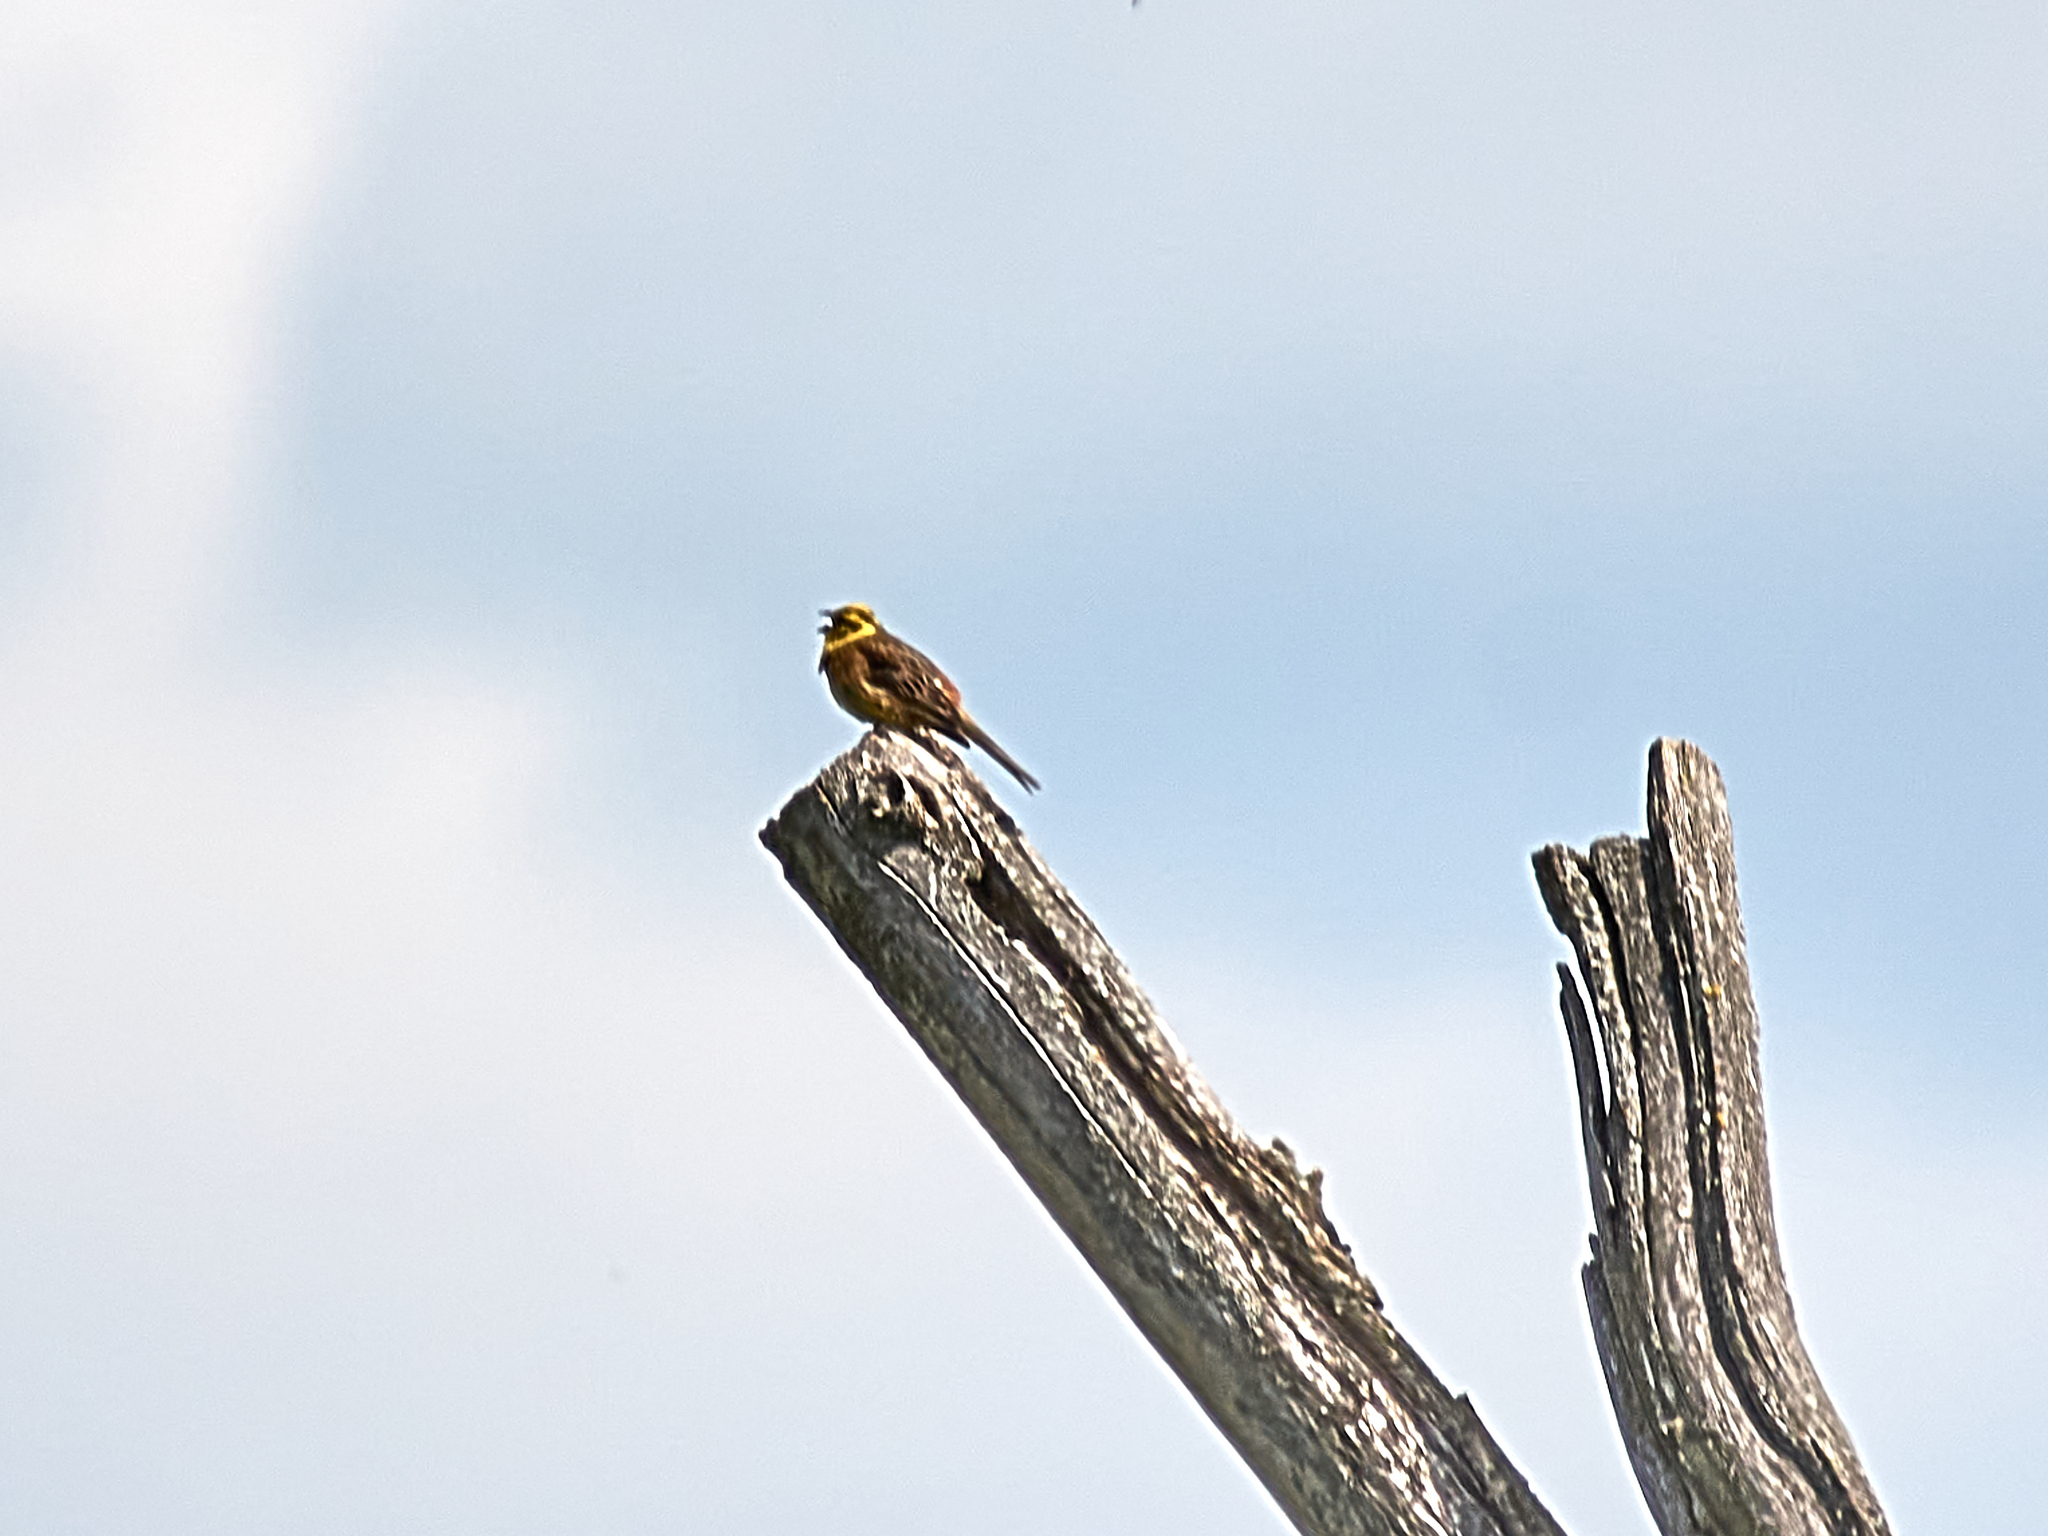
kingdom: Animalia
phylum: Chordata
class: Aves
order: Passeriformes
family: Emberizidae
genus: Emberiza
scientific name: Emberiza citrinella
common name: Yellowhammer
